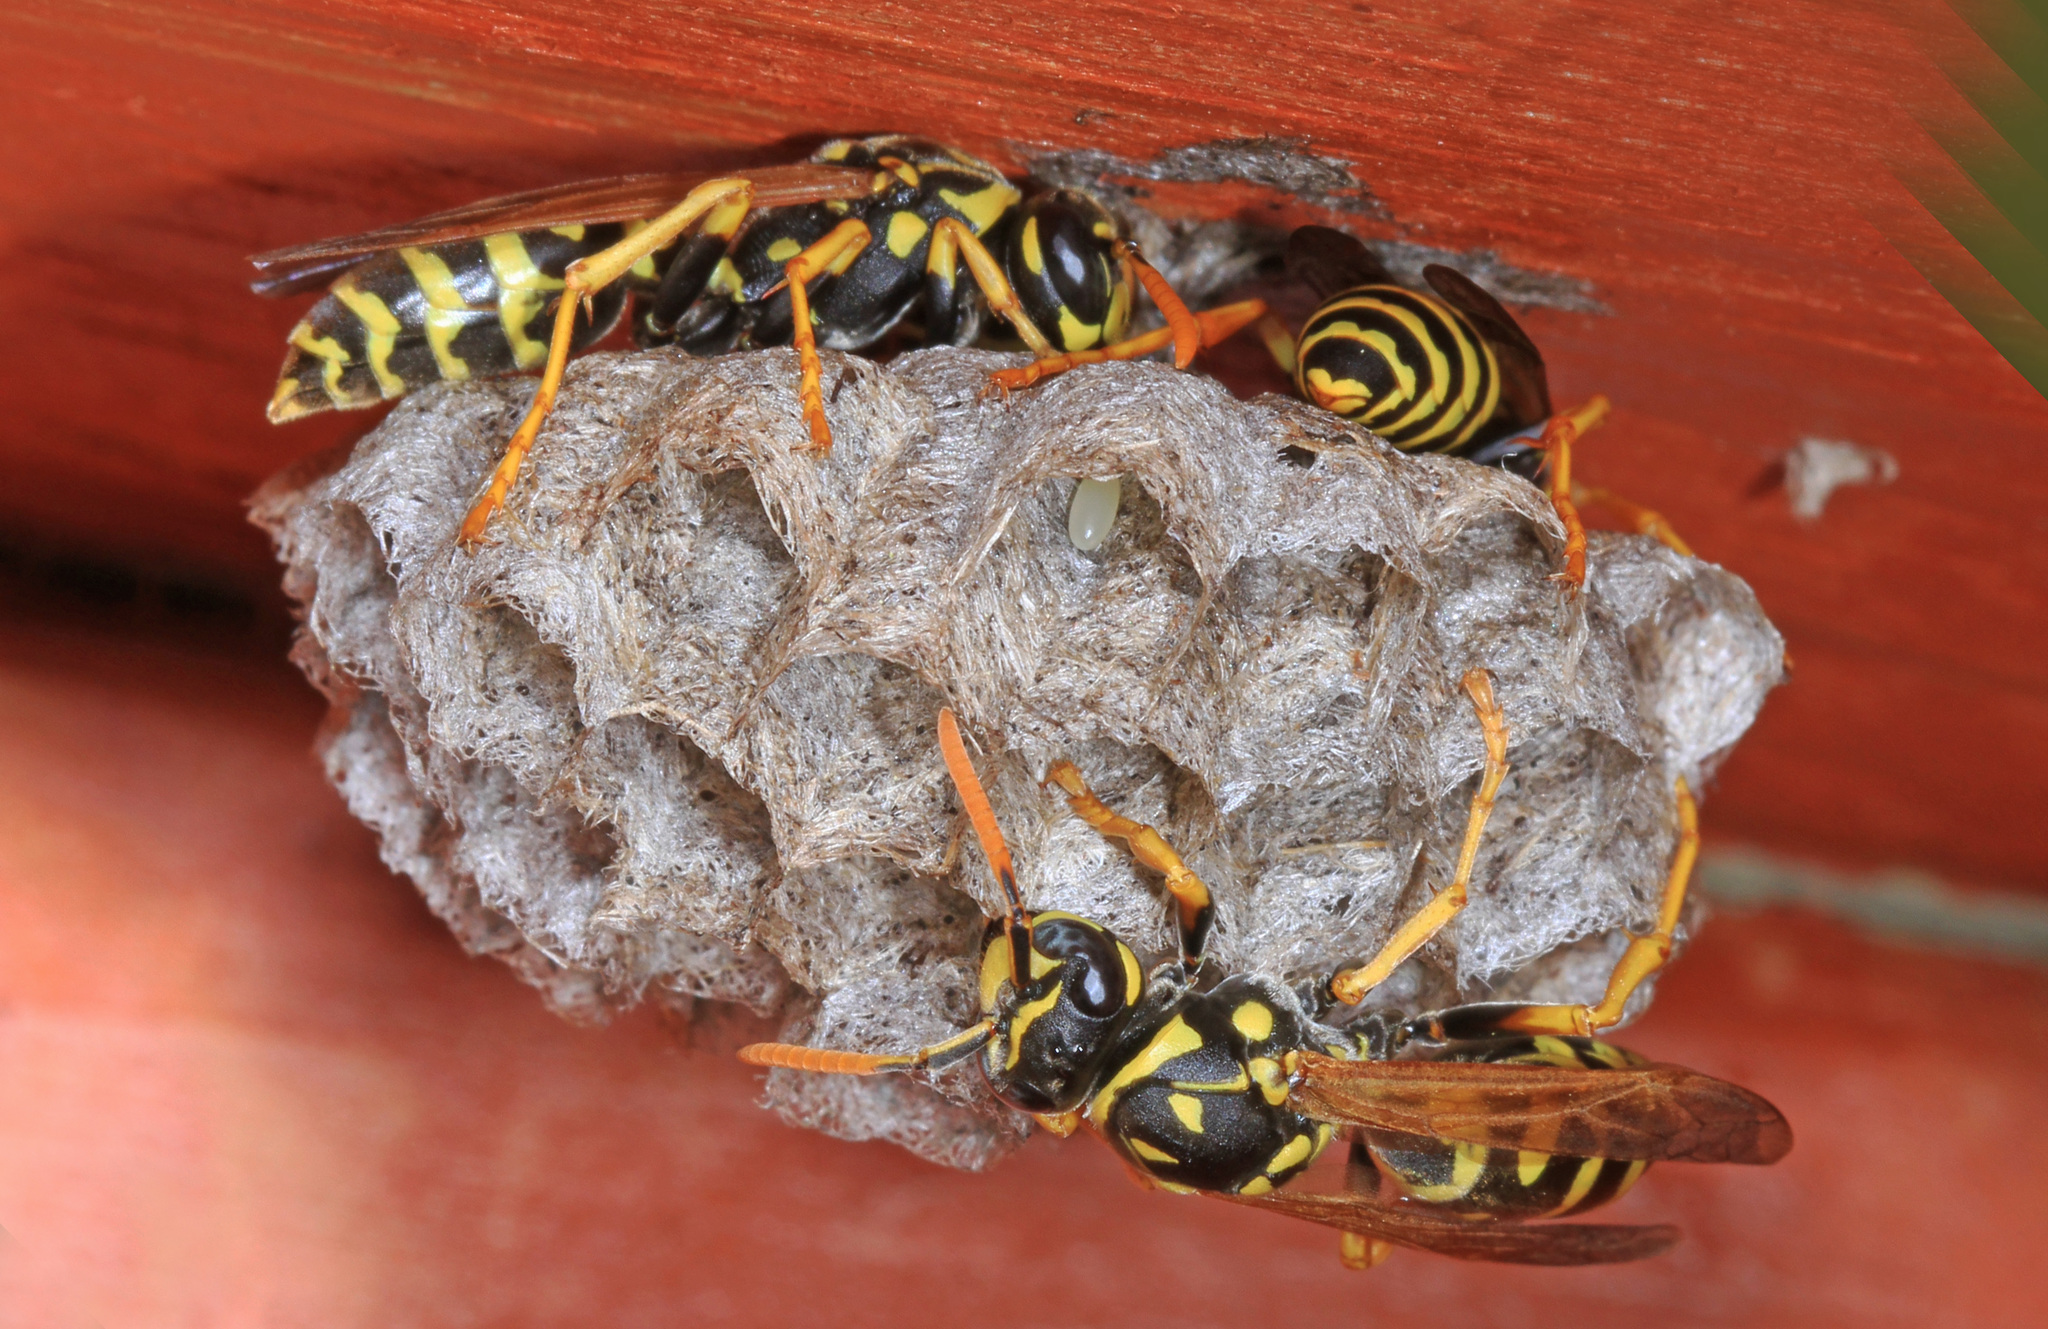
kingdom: Animalia
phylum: Arthropoda
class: Insecta
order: Hymenoptera
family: Eumenidae
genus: Polistes
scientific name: Polistes dominula
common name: Paper wasp
